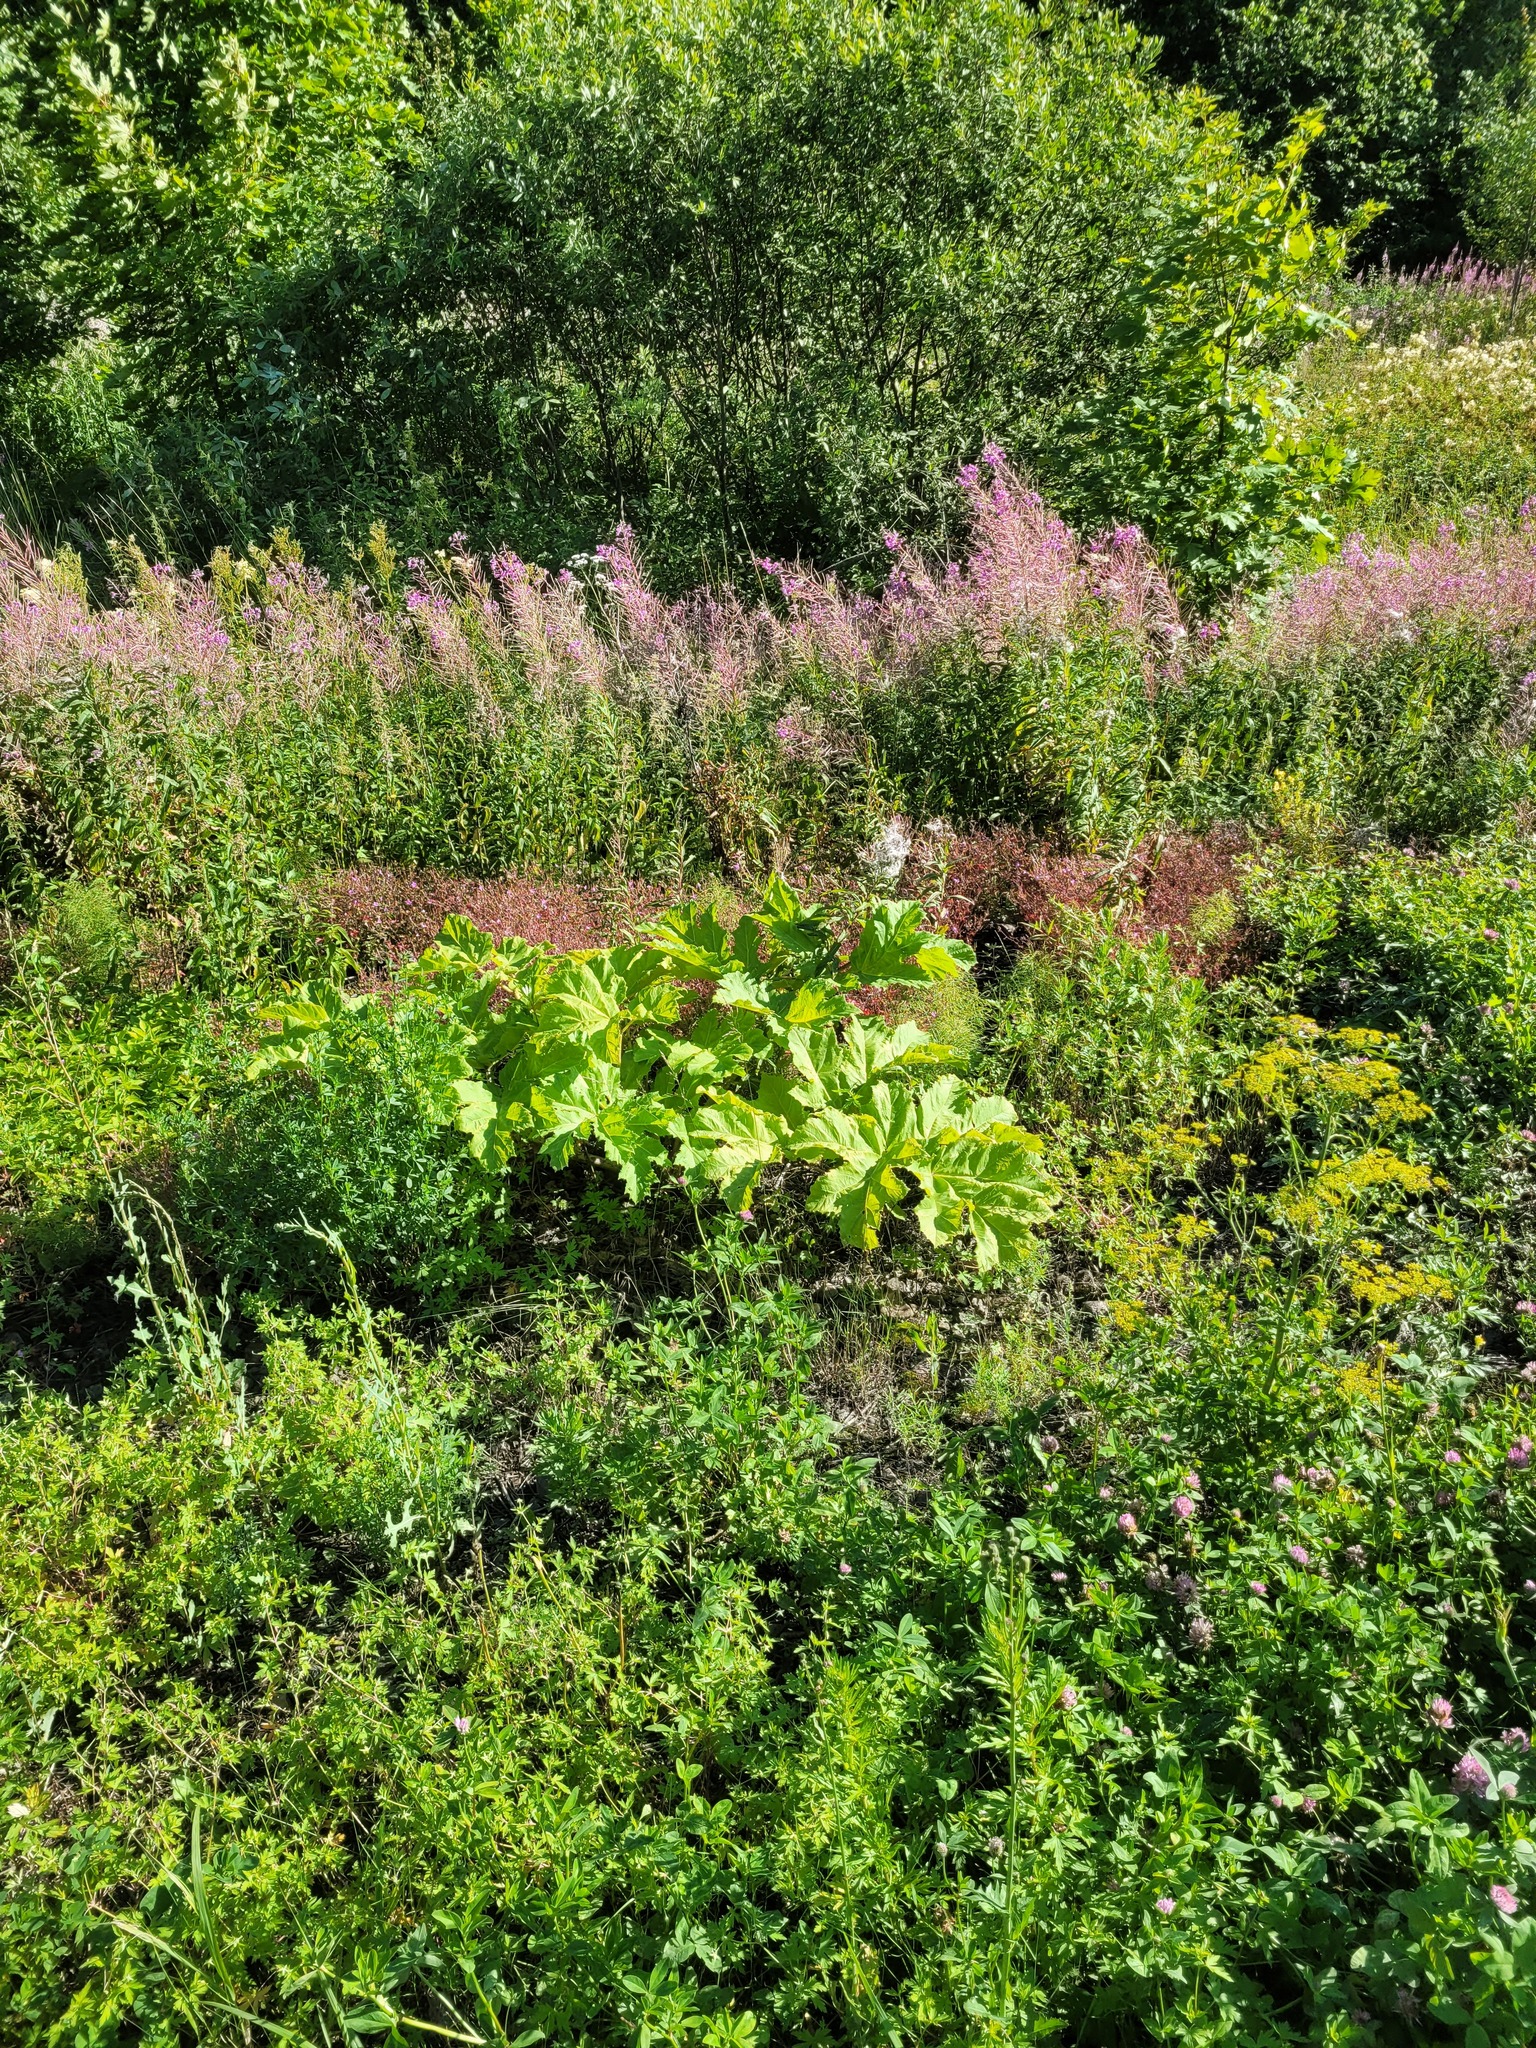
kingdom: Plantae
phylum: Tracheophyta
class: Magnoliopsida
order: Apiales
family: Apiaceae
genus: Heracleum
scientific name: Heracleum sosnowskyi
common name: Sosnowsky's hogweed
